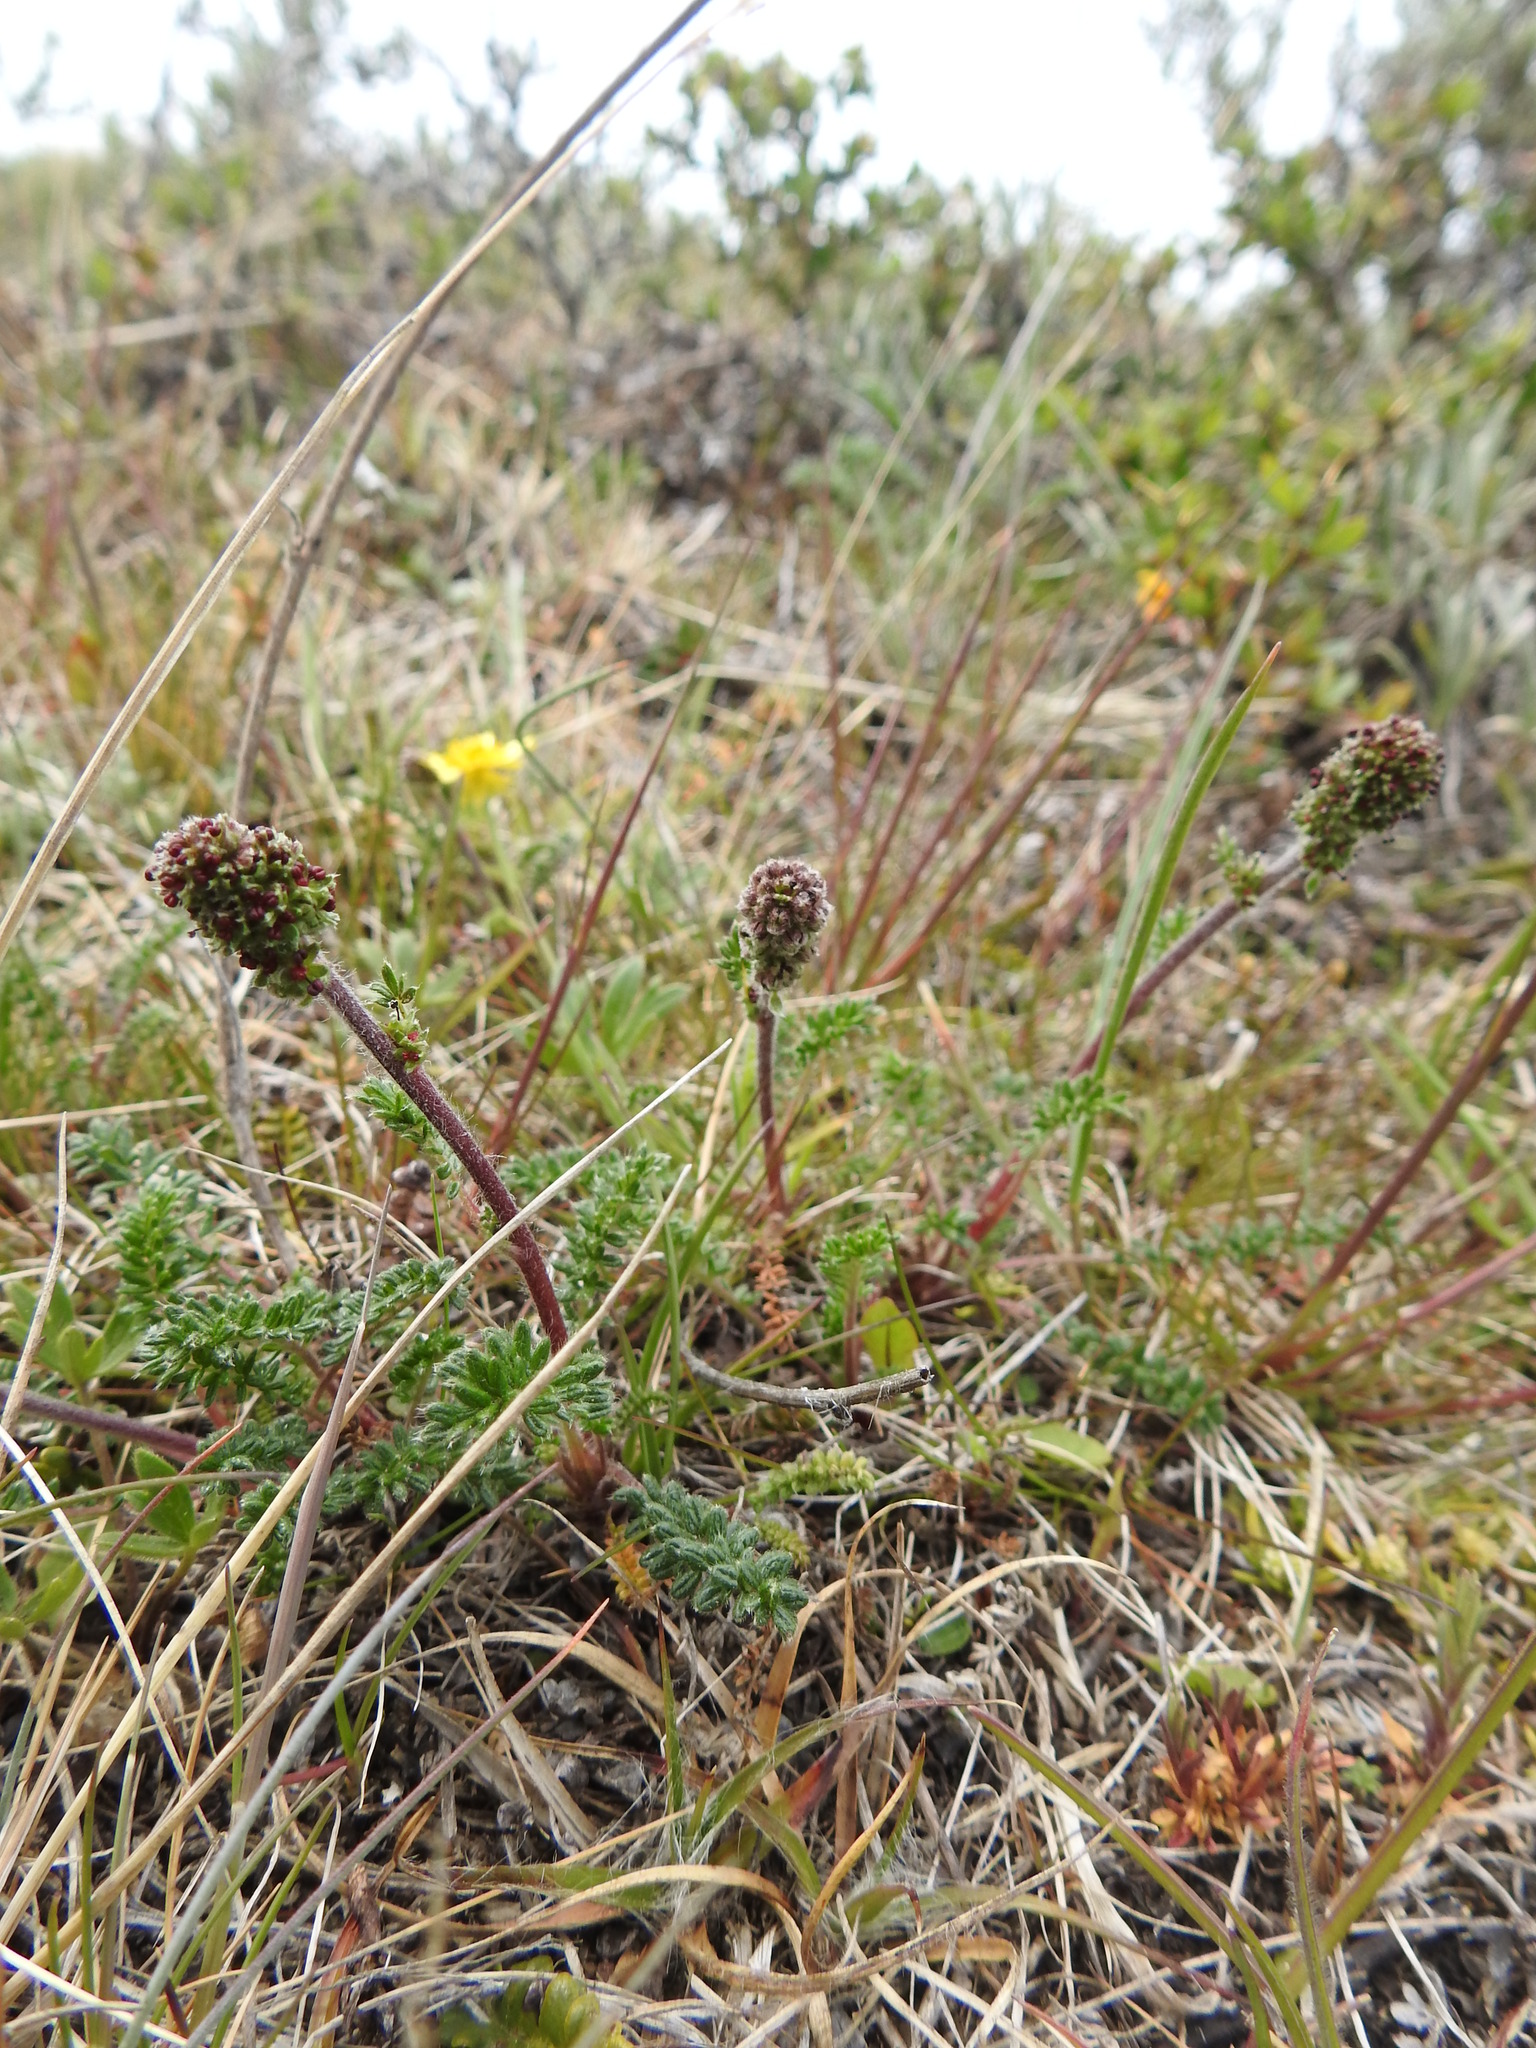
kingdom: Plantae
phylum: Tracheophyta
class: Magnoliopsida
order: Rosales
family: Rosaceae
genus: Acaena
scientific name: Acaena pinnatifida
